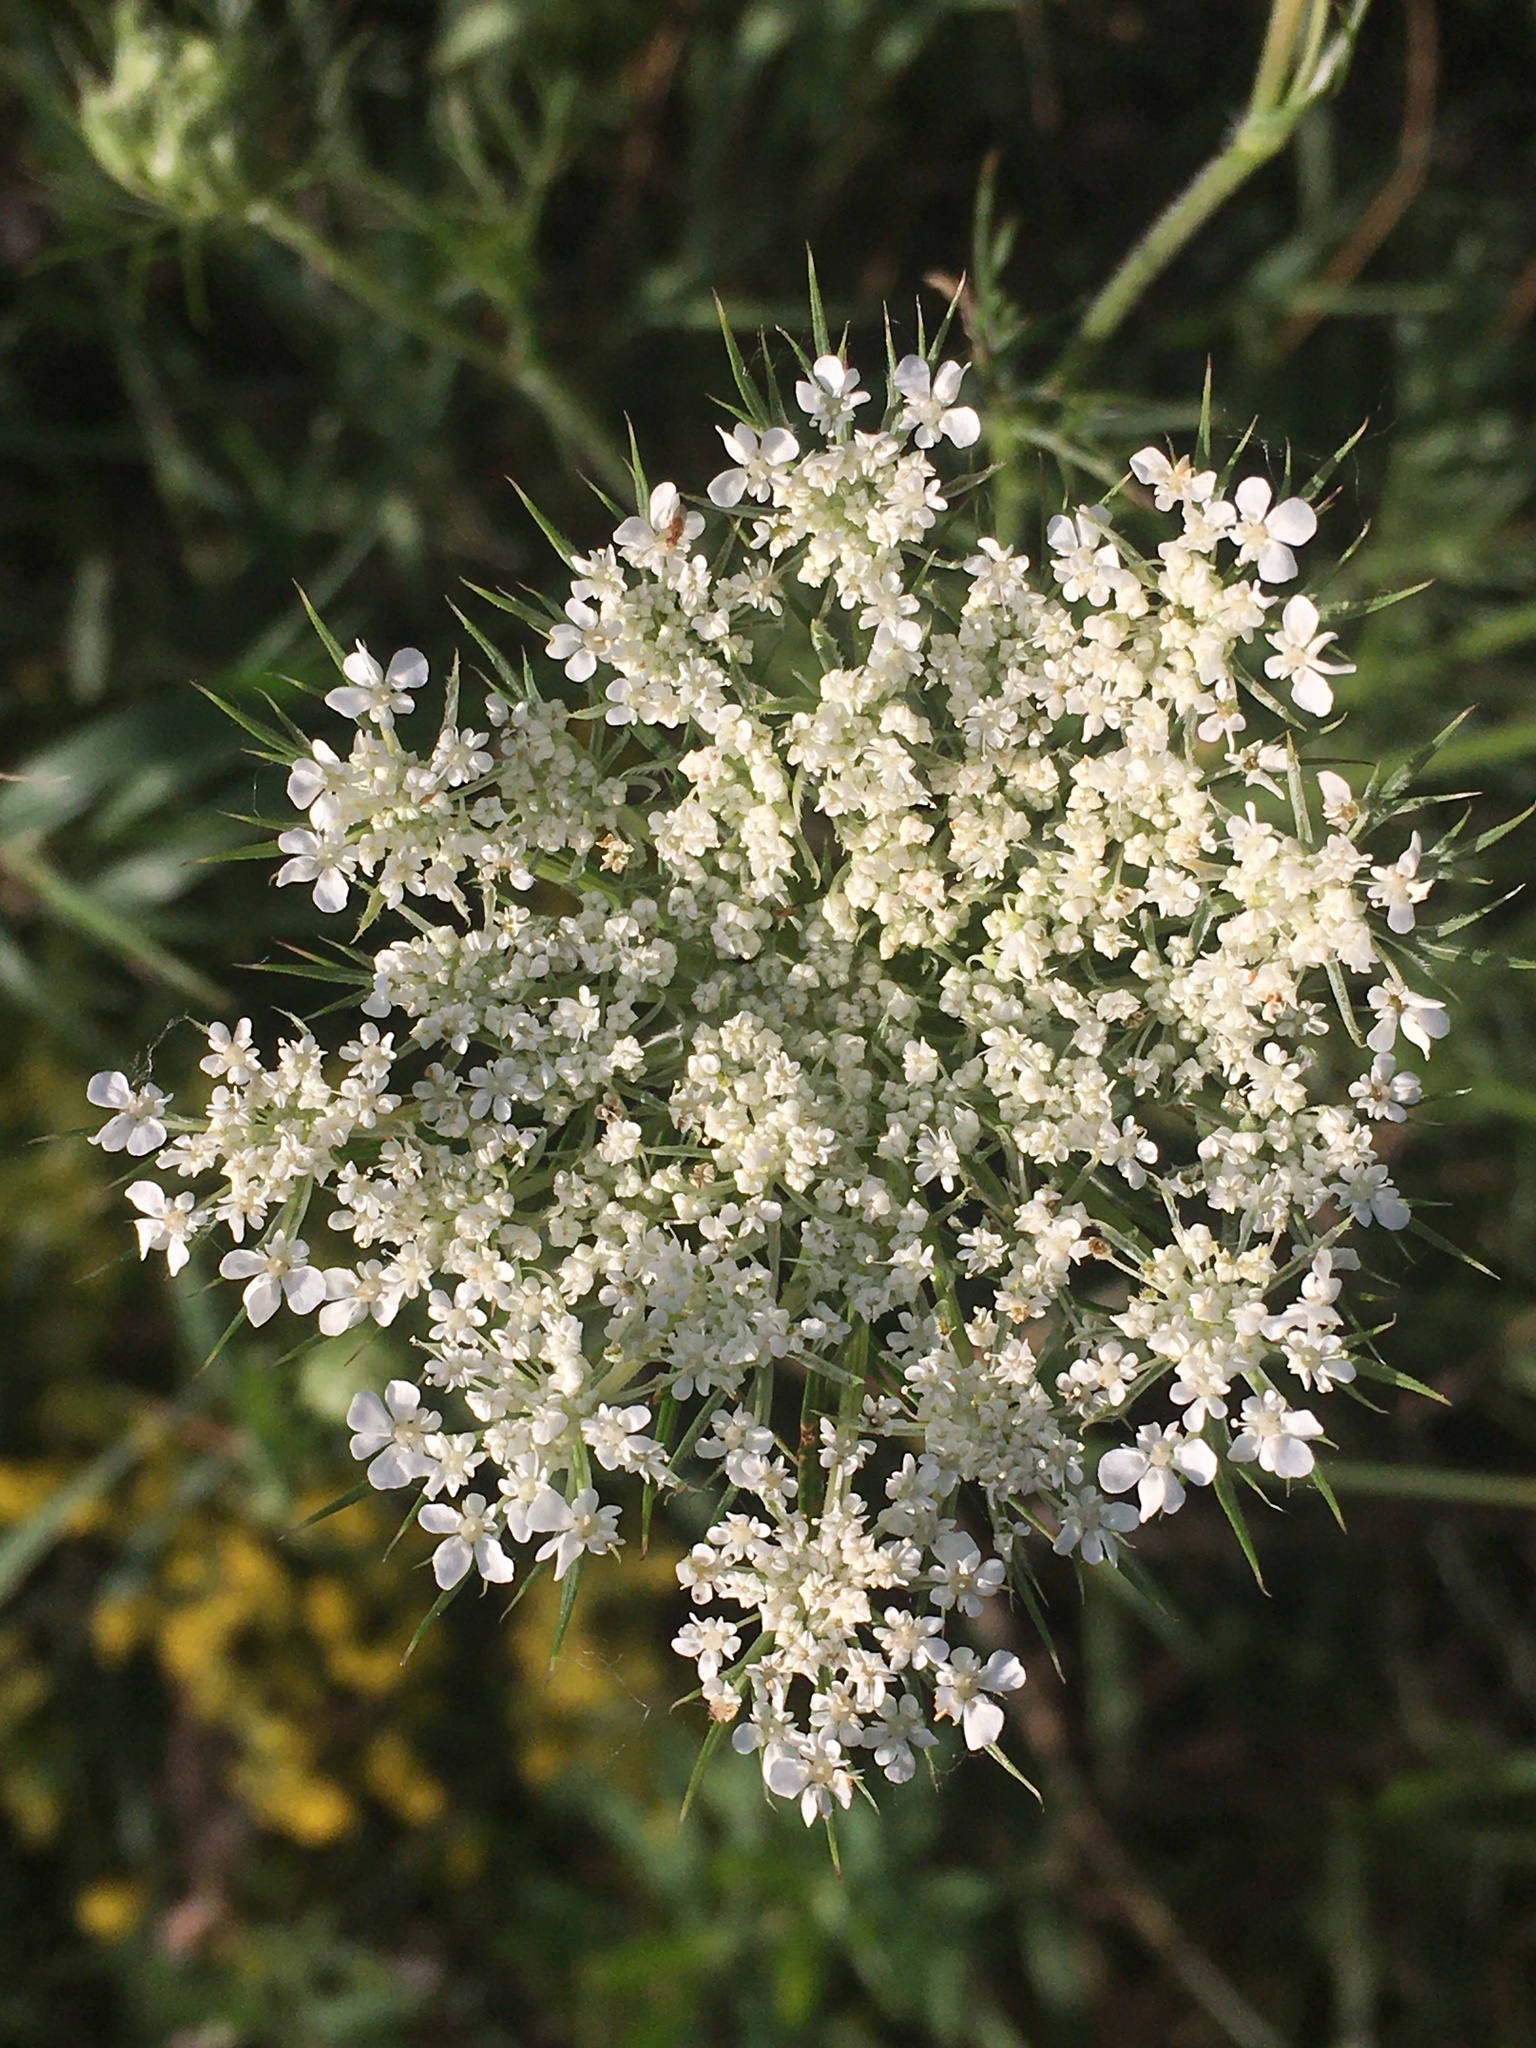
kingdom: Plantae
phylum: Tracheophyta
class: Magnoliopsida
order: Apiales
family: Apiaceae
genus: Daucus
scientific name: Daucus carota
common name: Wild carrot
